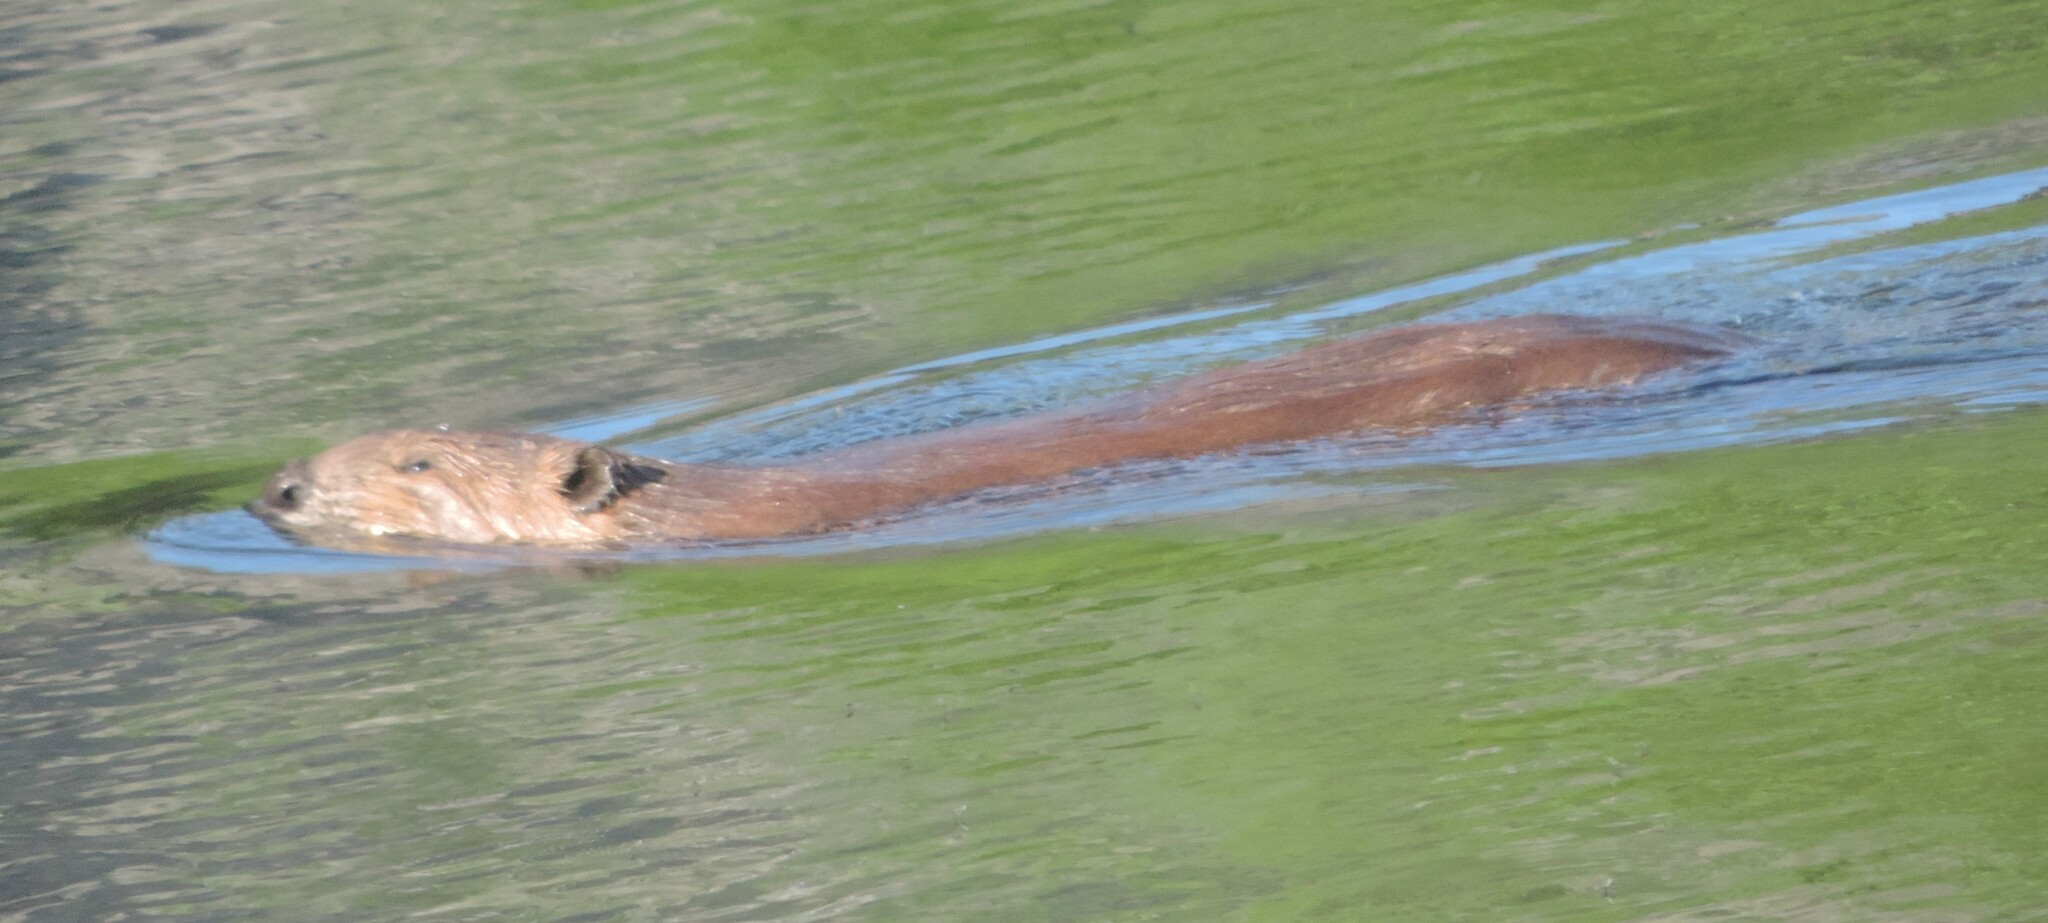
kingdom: Animalia
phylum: Chordata
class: Mammalia
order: Rodentia
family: Castoridae
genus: Castor
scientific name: Castor canadensis
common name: American beaver
